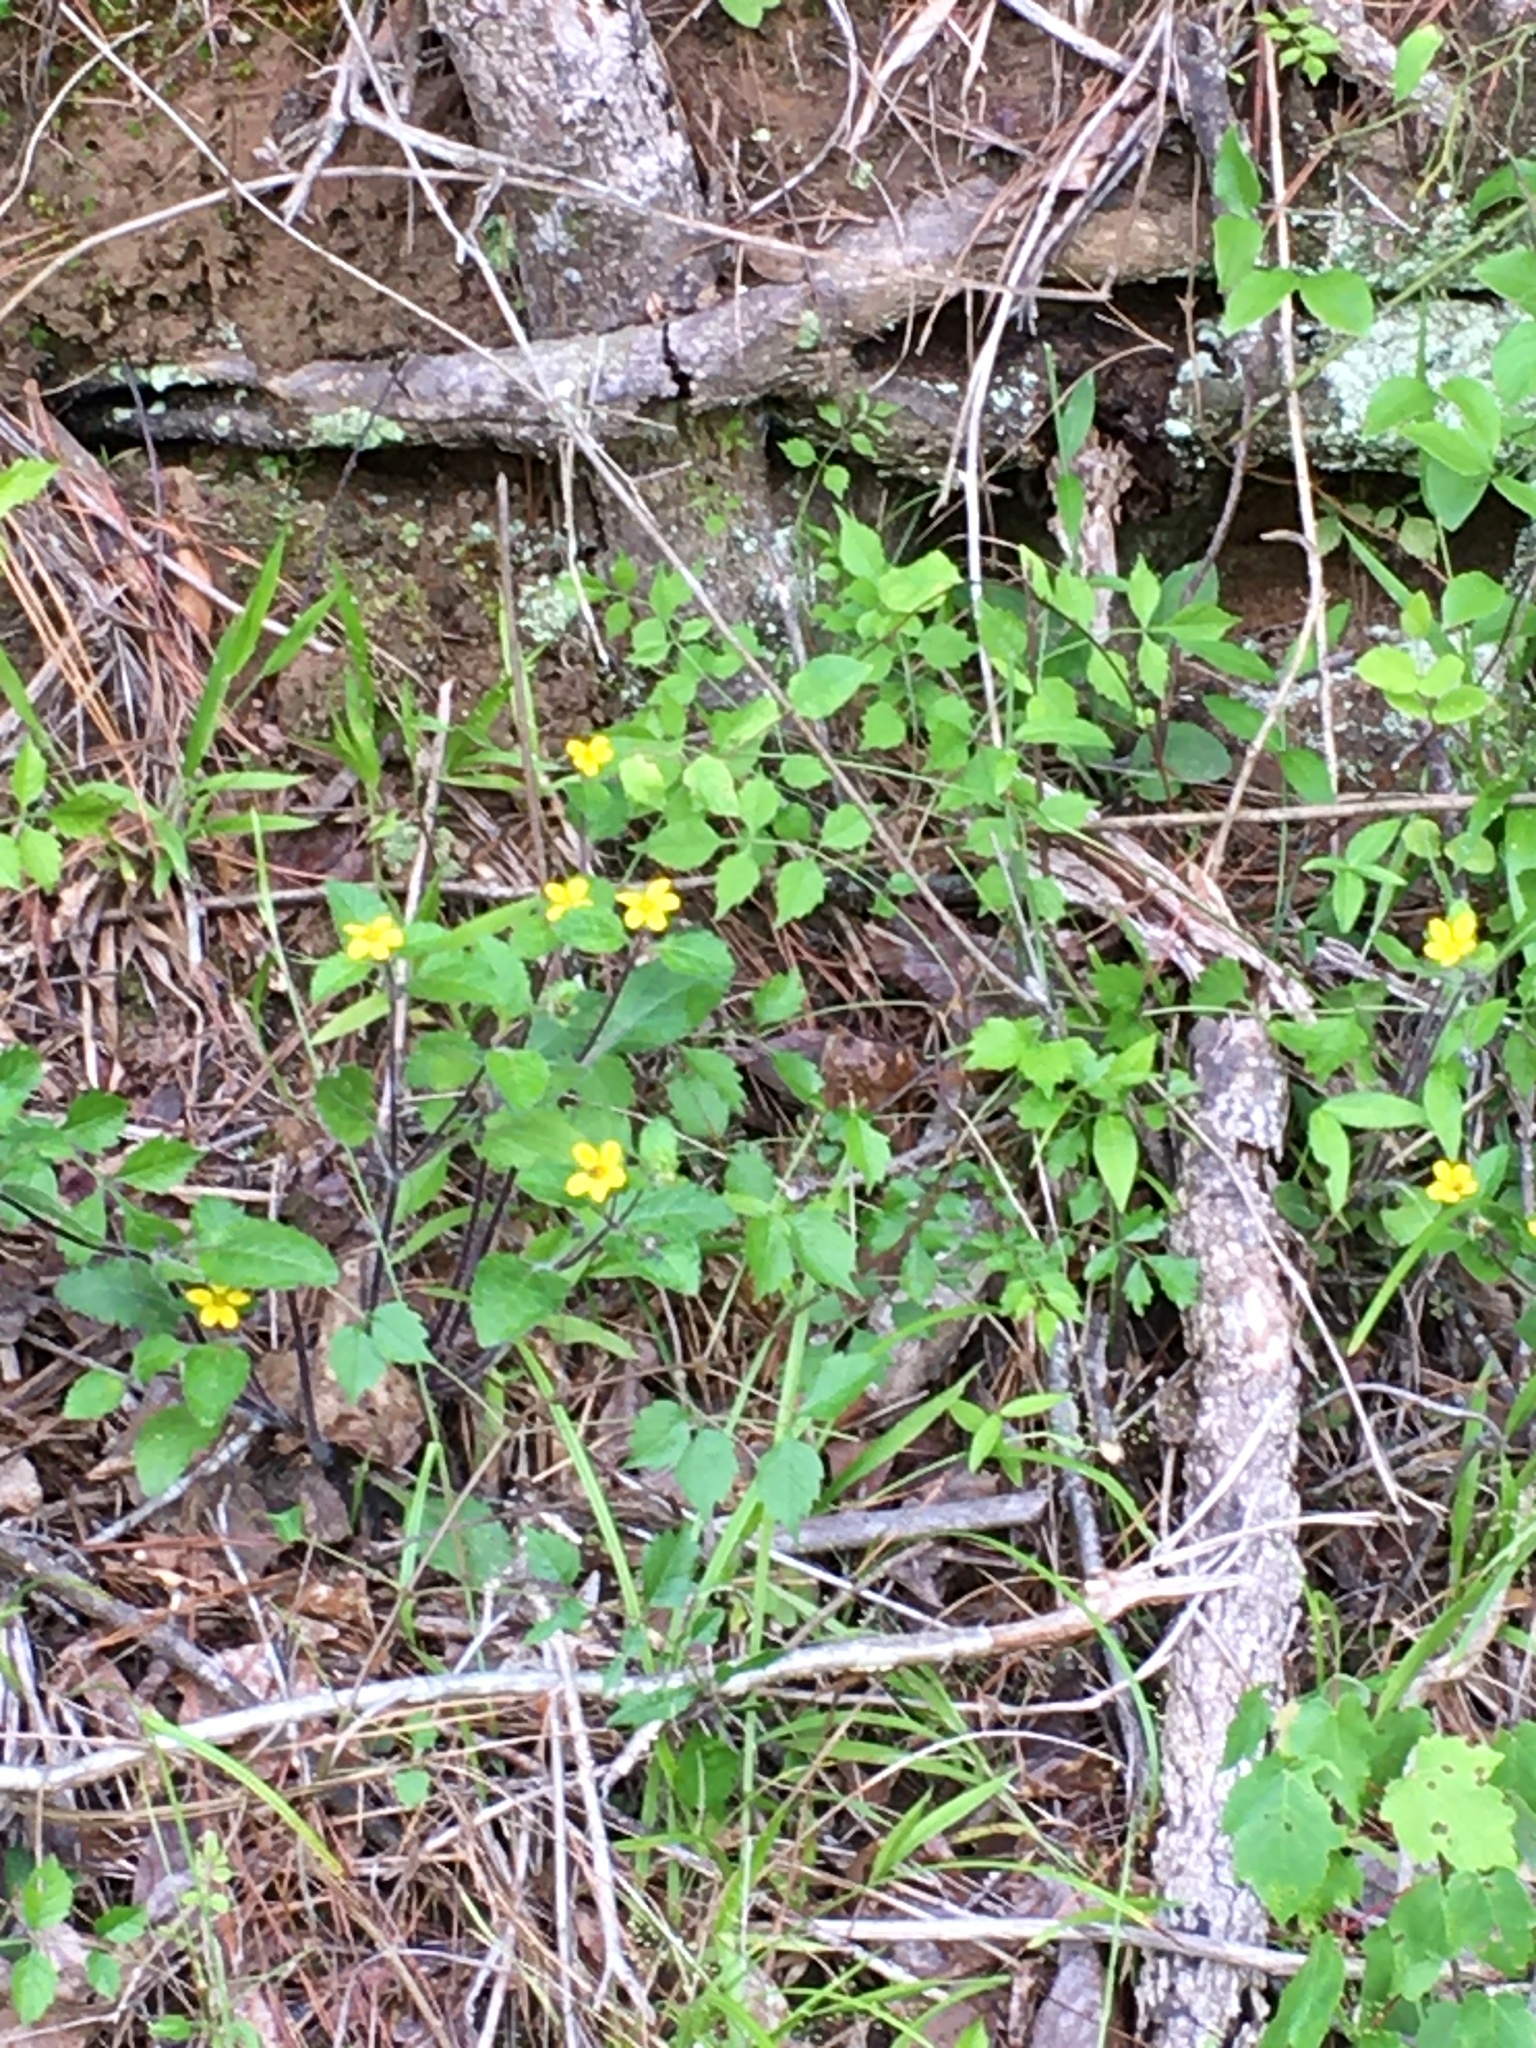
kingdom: Plantae
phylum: Tracheophyta
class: Magnoliopsida
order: Asterales
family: Asteraceae
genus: Chrysogonum
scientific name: Chrysogonum virginianum
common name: Golden-knee
